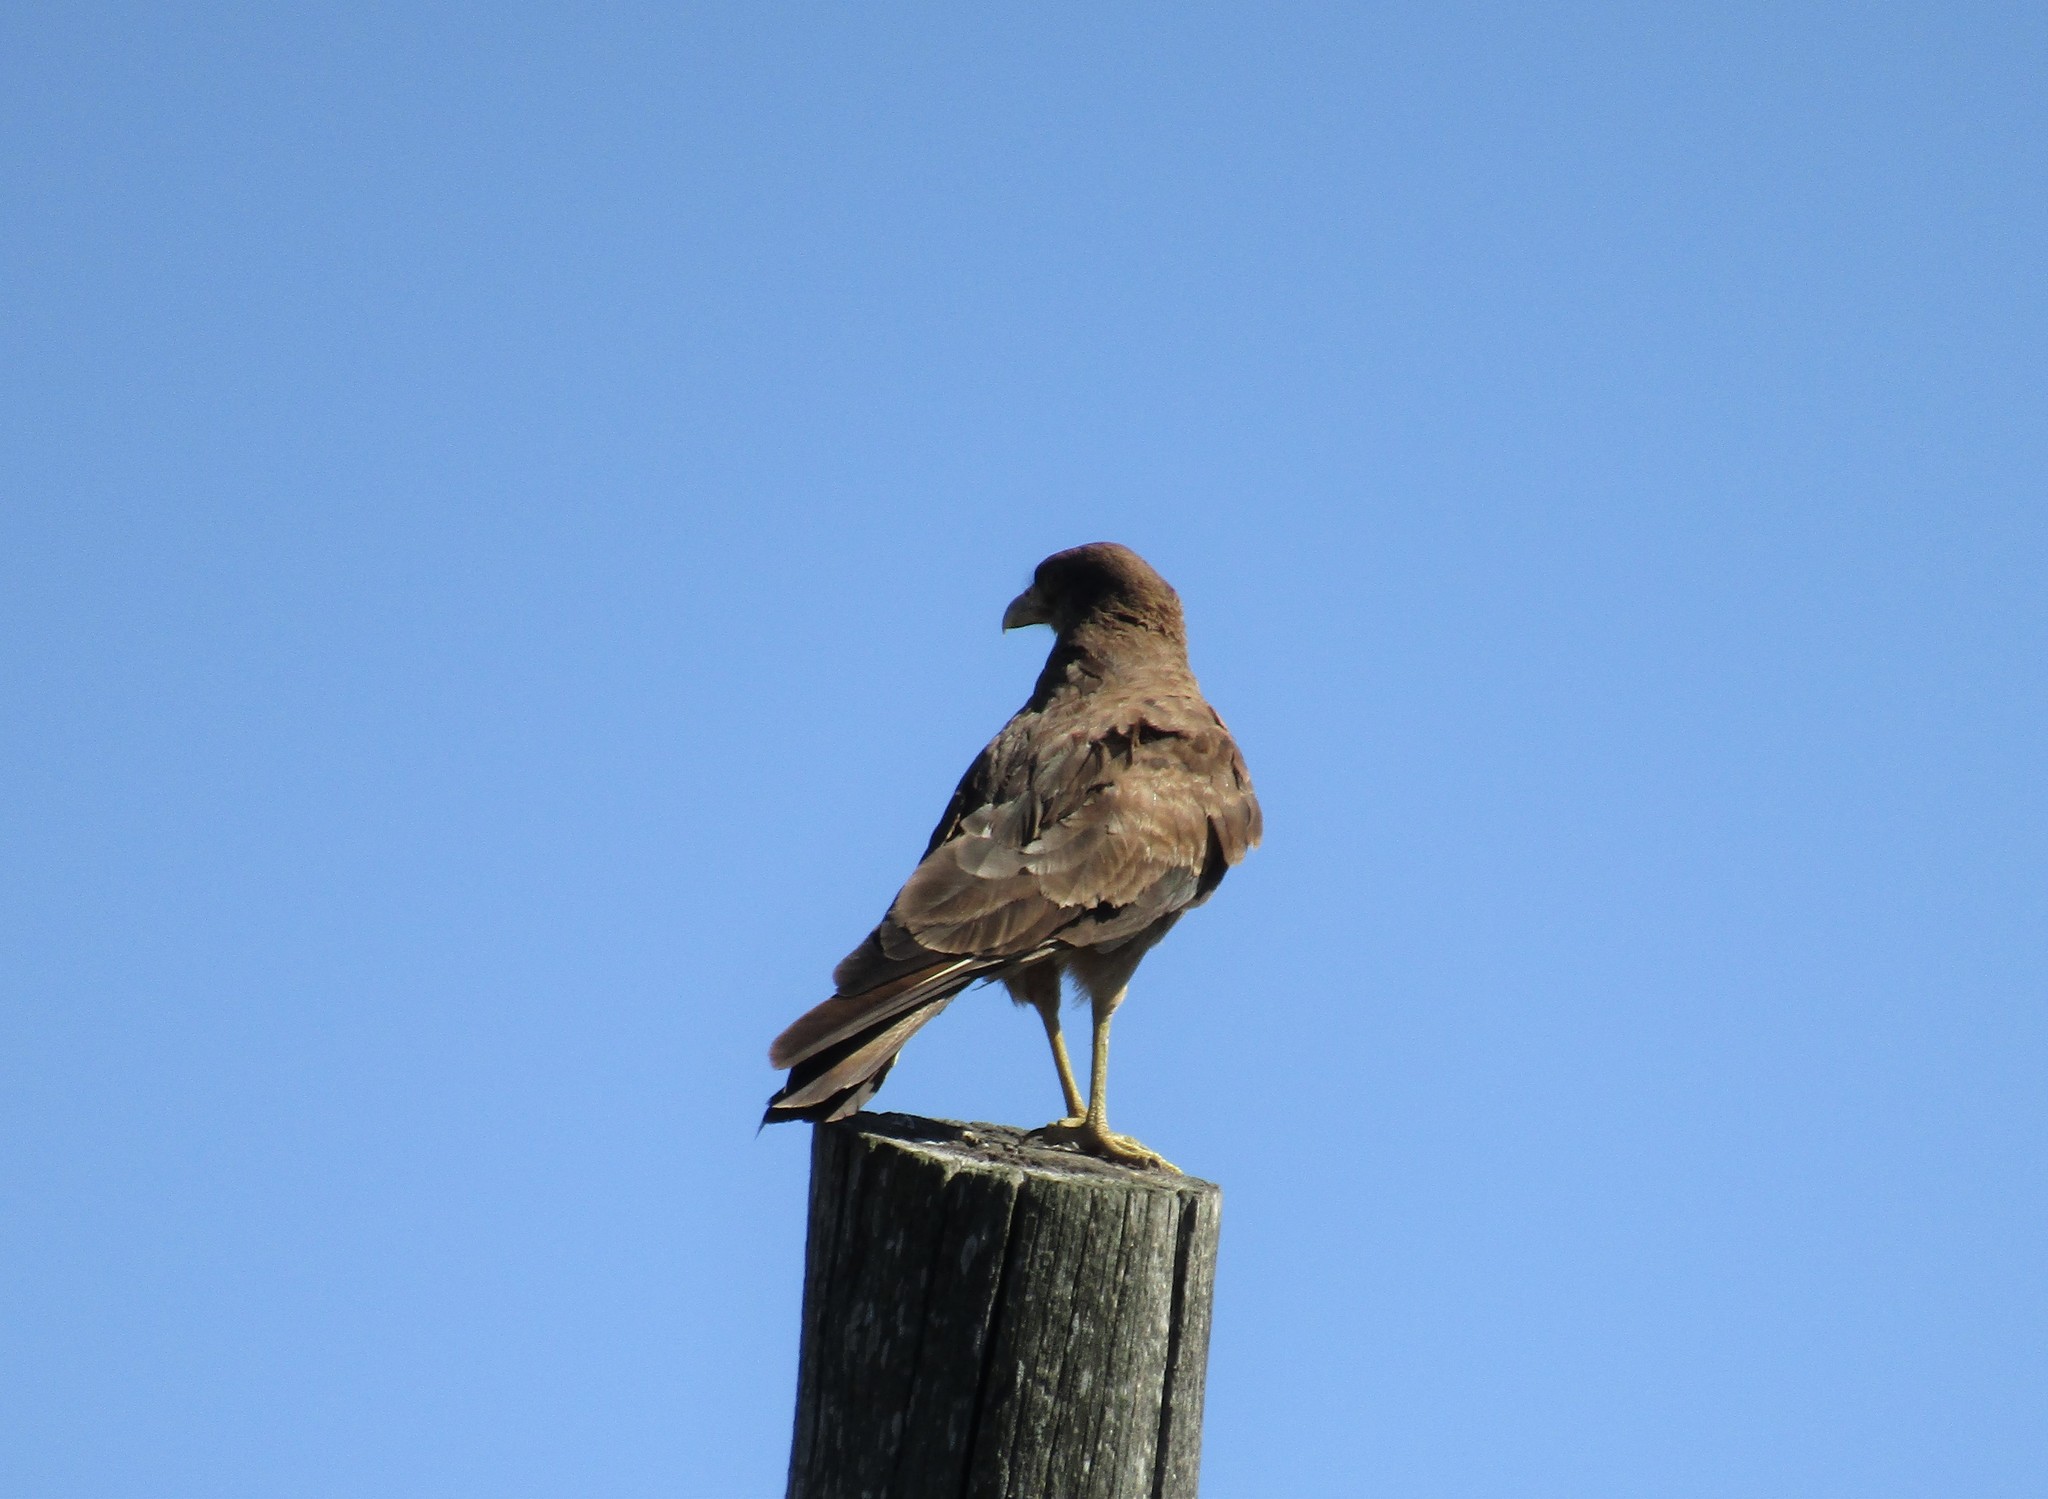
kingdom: Animalia
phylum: Chordata
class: Aves
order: Falconiformes
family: Falconidae
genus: Daptrius
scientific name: Daptrius
